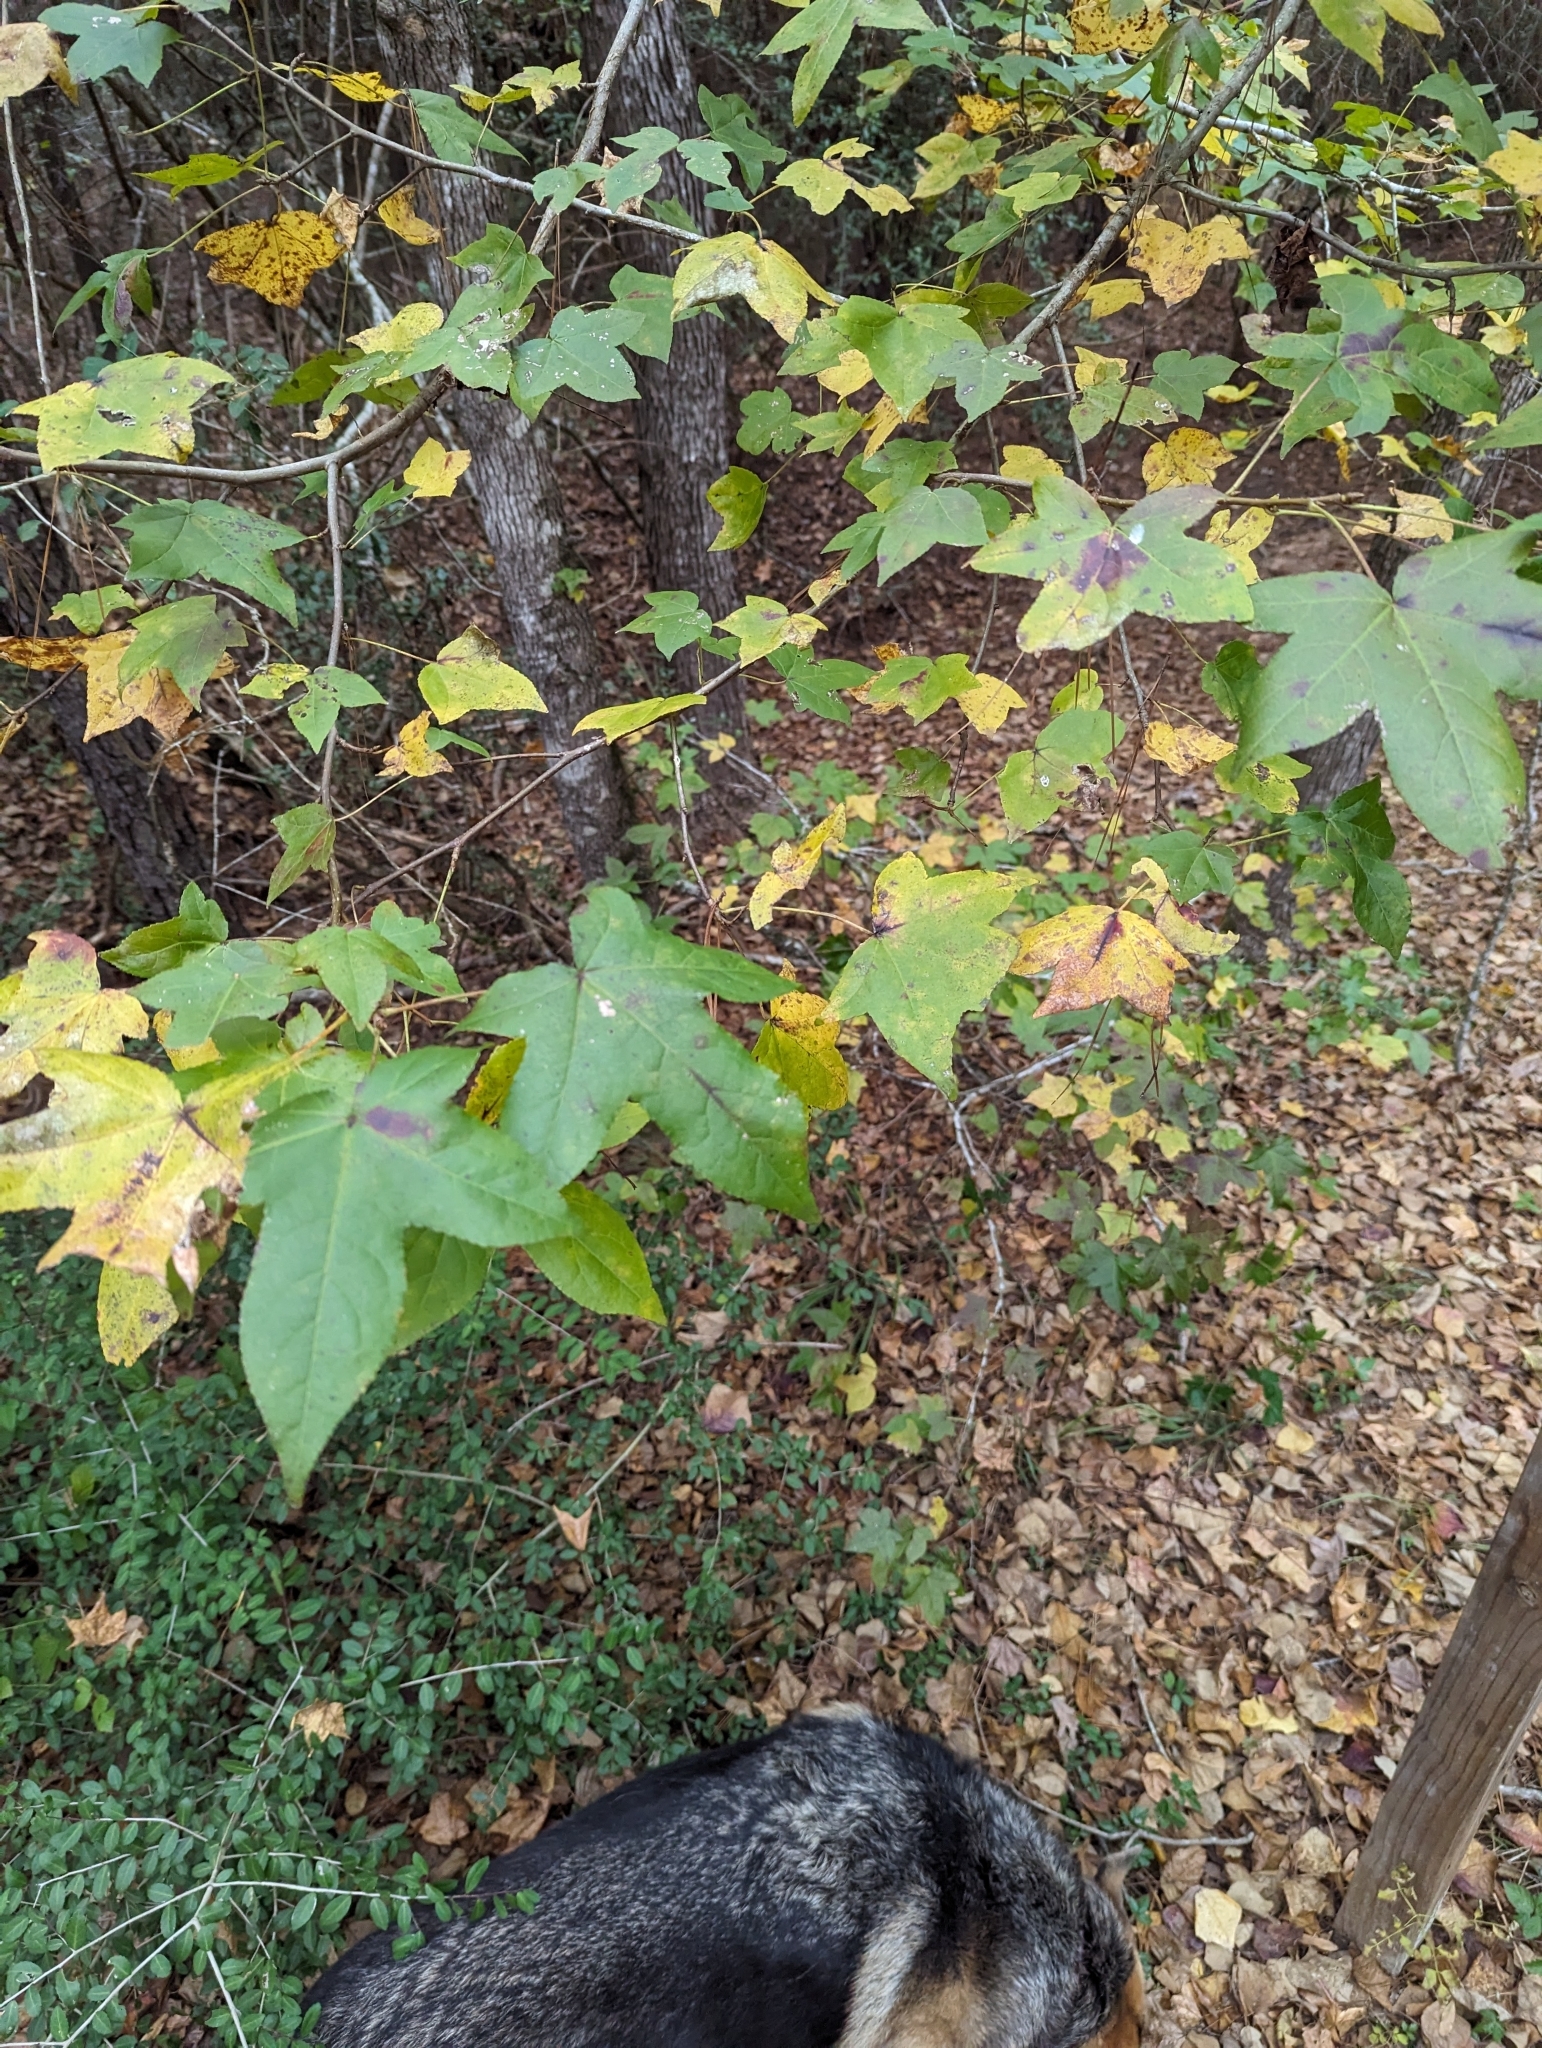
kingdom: Plantae
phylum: Tracheophyta
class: Magnoliopsida
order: Saxifragales
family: Altingiaceae
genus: Liquidambar
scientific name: Liquidambar styraciflua
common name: Sweet gum
